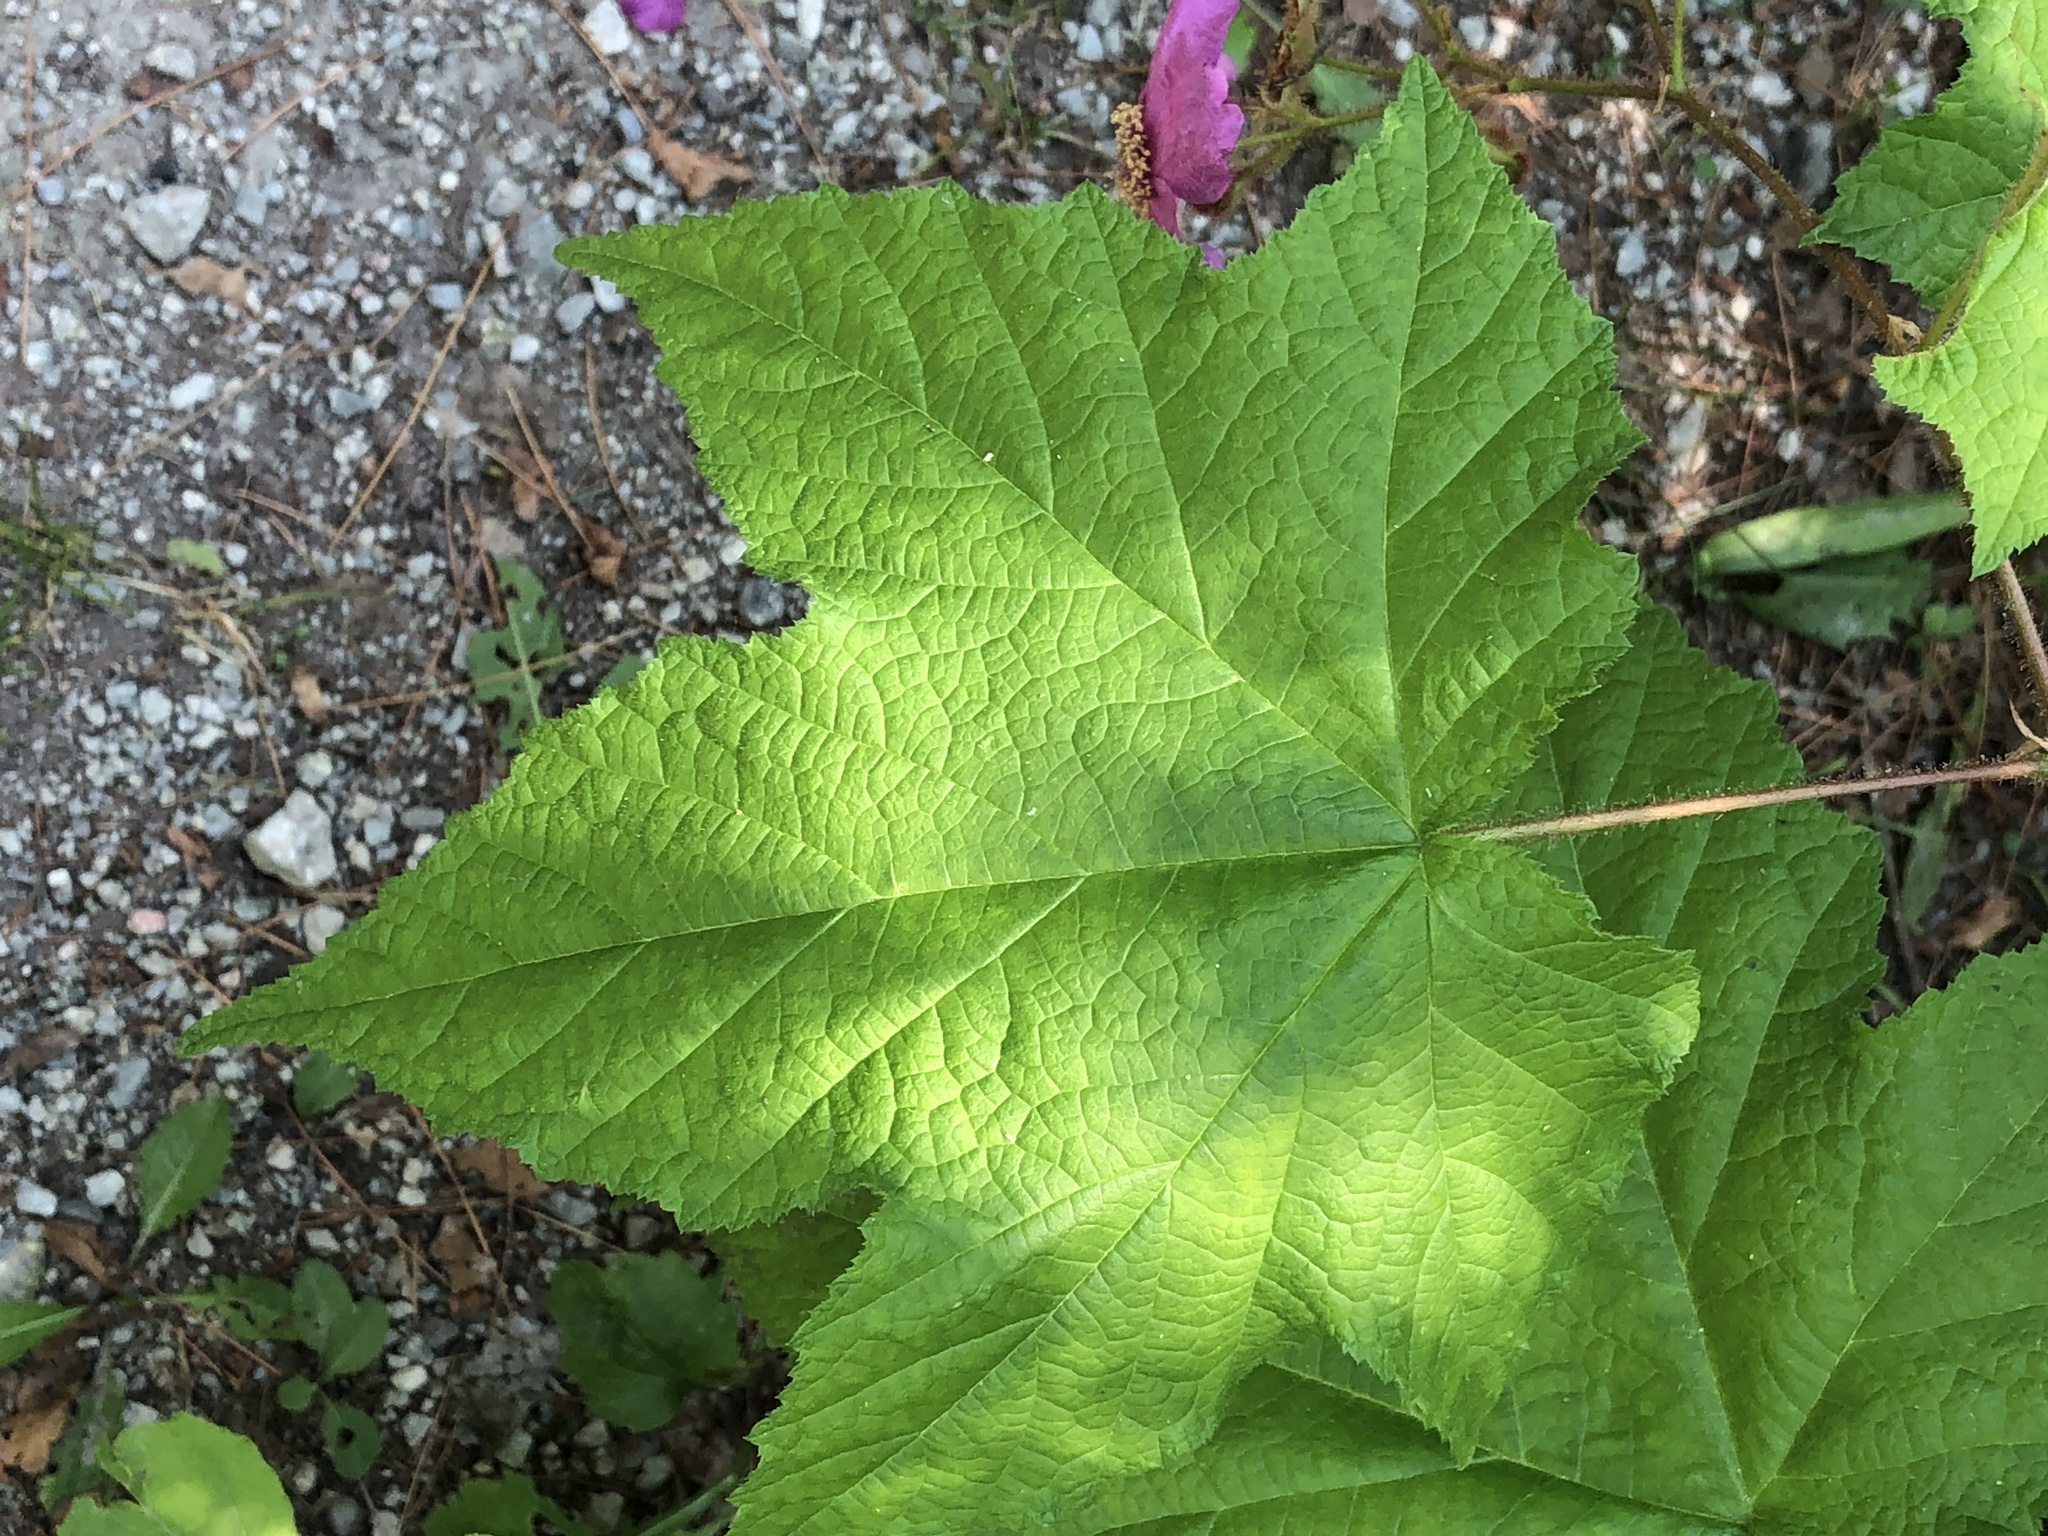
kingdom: Plantae
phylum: Tracheophyta
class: Magnoliopsida
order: Rosales
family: Rosaceae
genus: Rubus
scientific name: Rubus odoratus
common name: Purple-flowered raspberry
